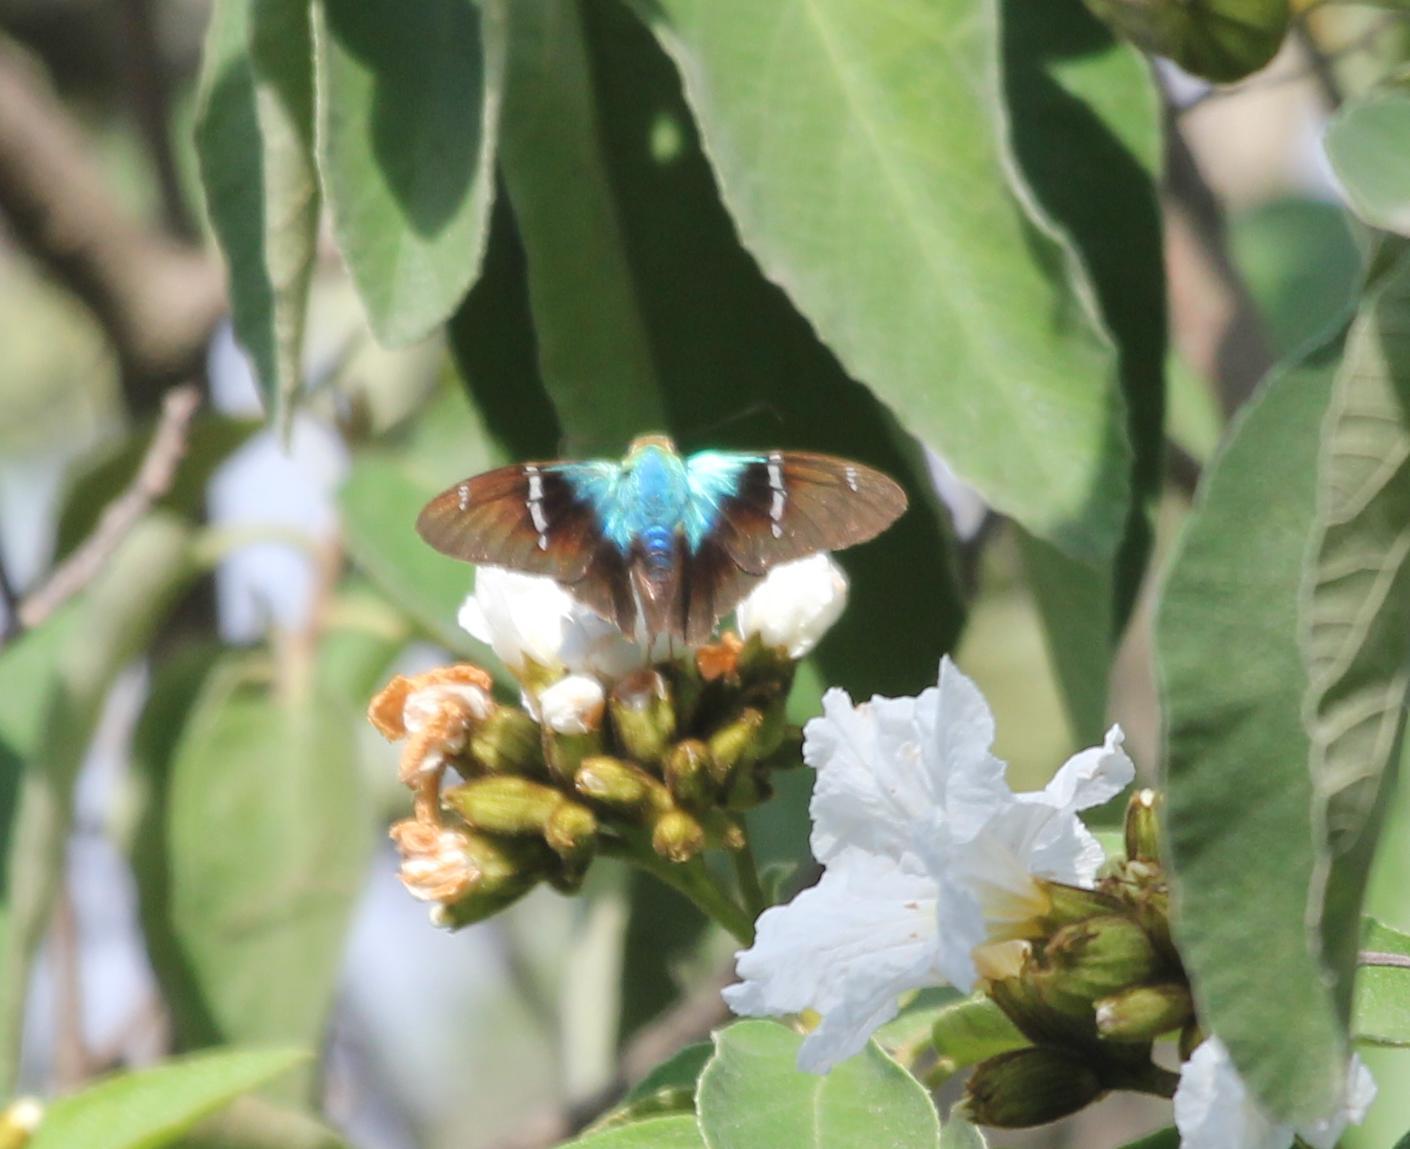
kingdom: Animalia
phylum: Arthropoda
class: Insecta
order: Lepidoptera
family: Hesperiidae
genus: Astraptes
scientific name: Astraptes fulgerator
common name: Two-barred flasher
